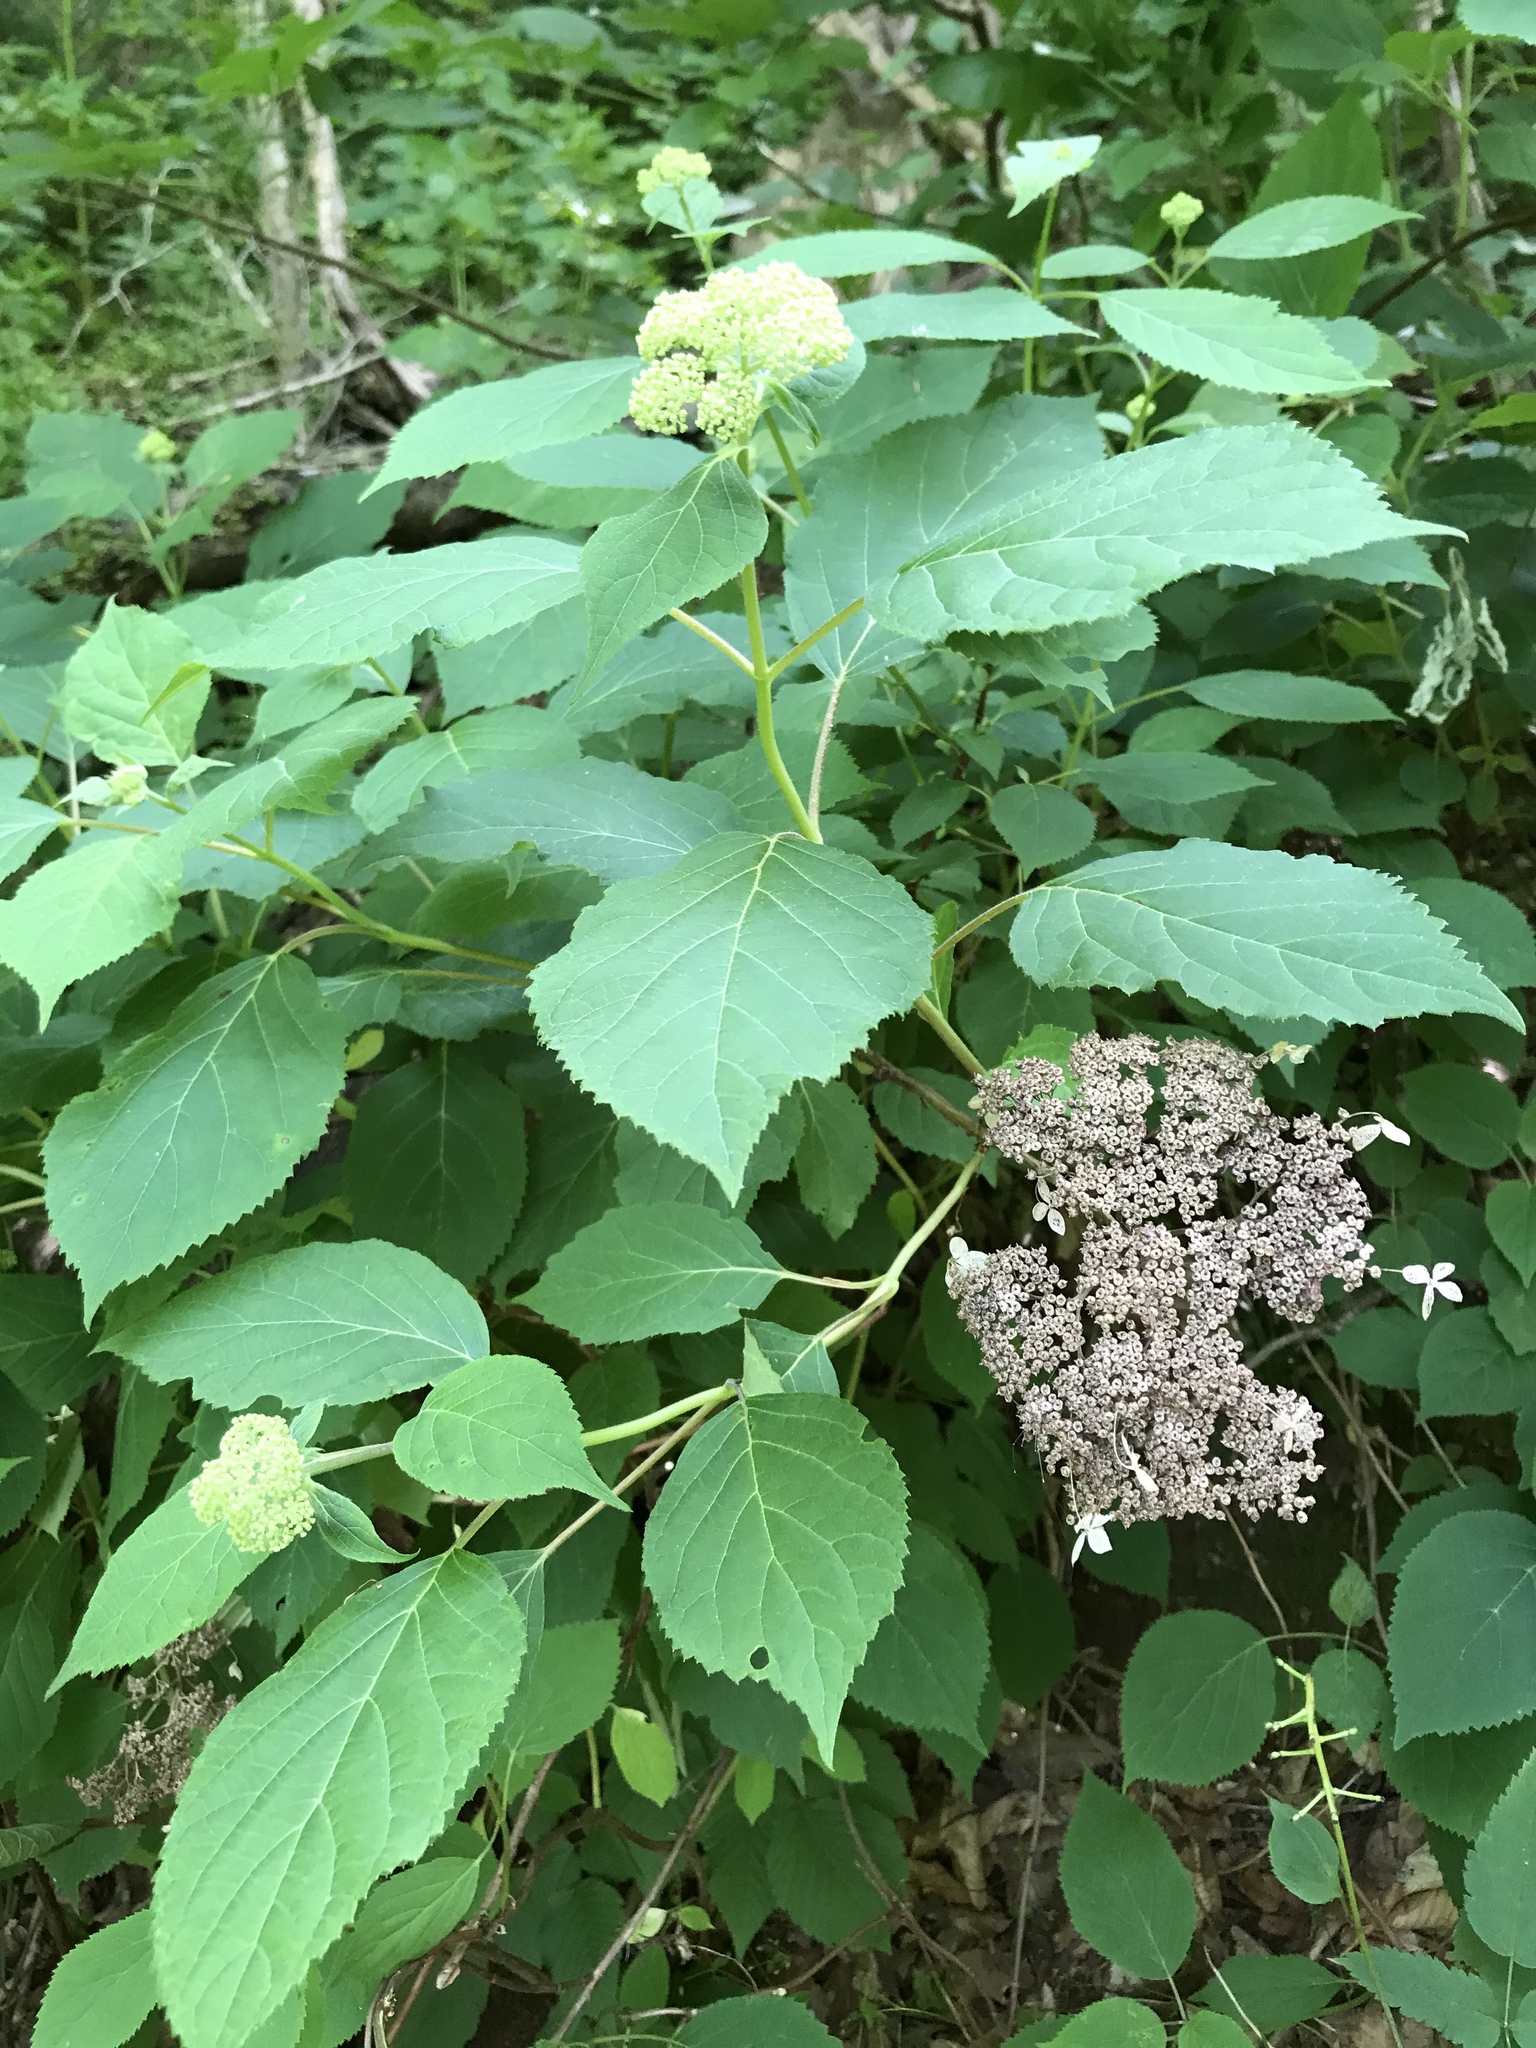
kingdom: Plantae
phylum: Tracheophyta
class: Magnoliopsida
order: Cornales
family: Hydrangeaceae
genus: Hydrangea
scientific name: Hydrangea arborescens
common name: Sevenbark
